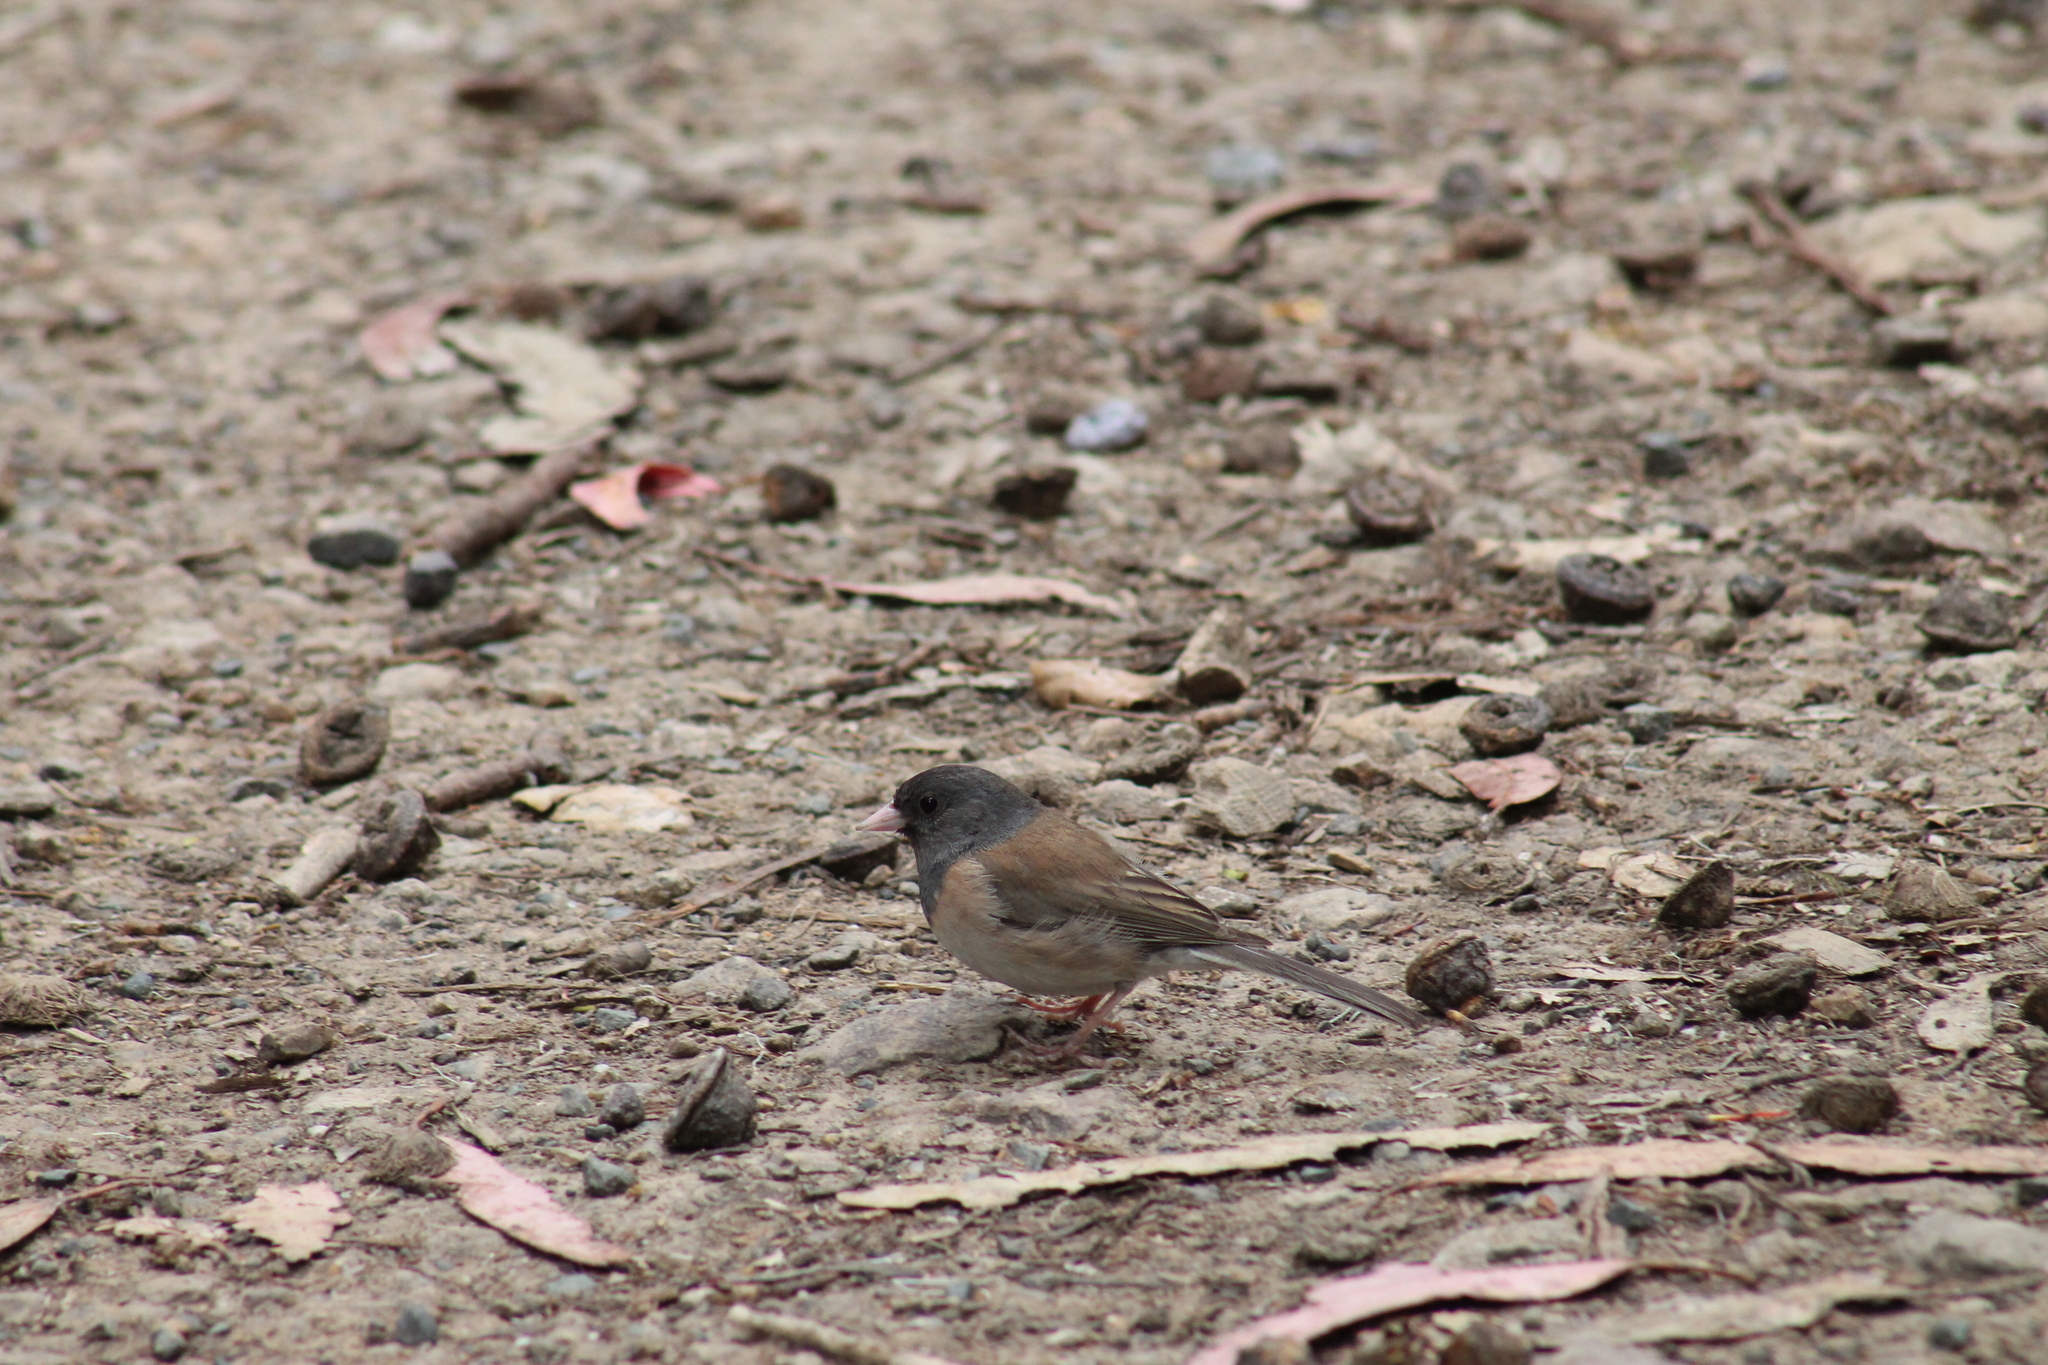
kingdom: Animalia
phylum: Chordata
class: Aves
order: Passeriformes
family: Passerellidae
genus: Junco
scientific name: Junco hyemalis
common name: Dark-eyed junco
